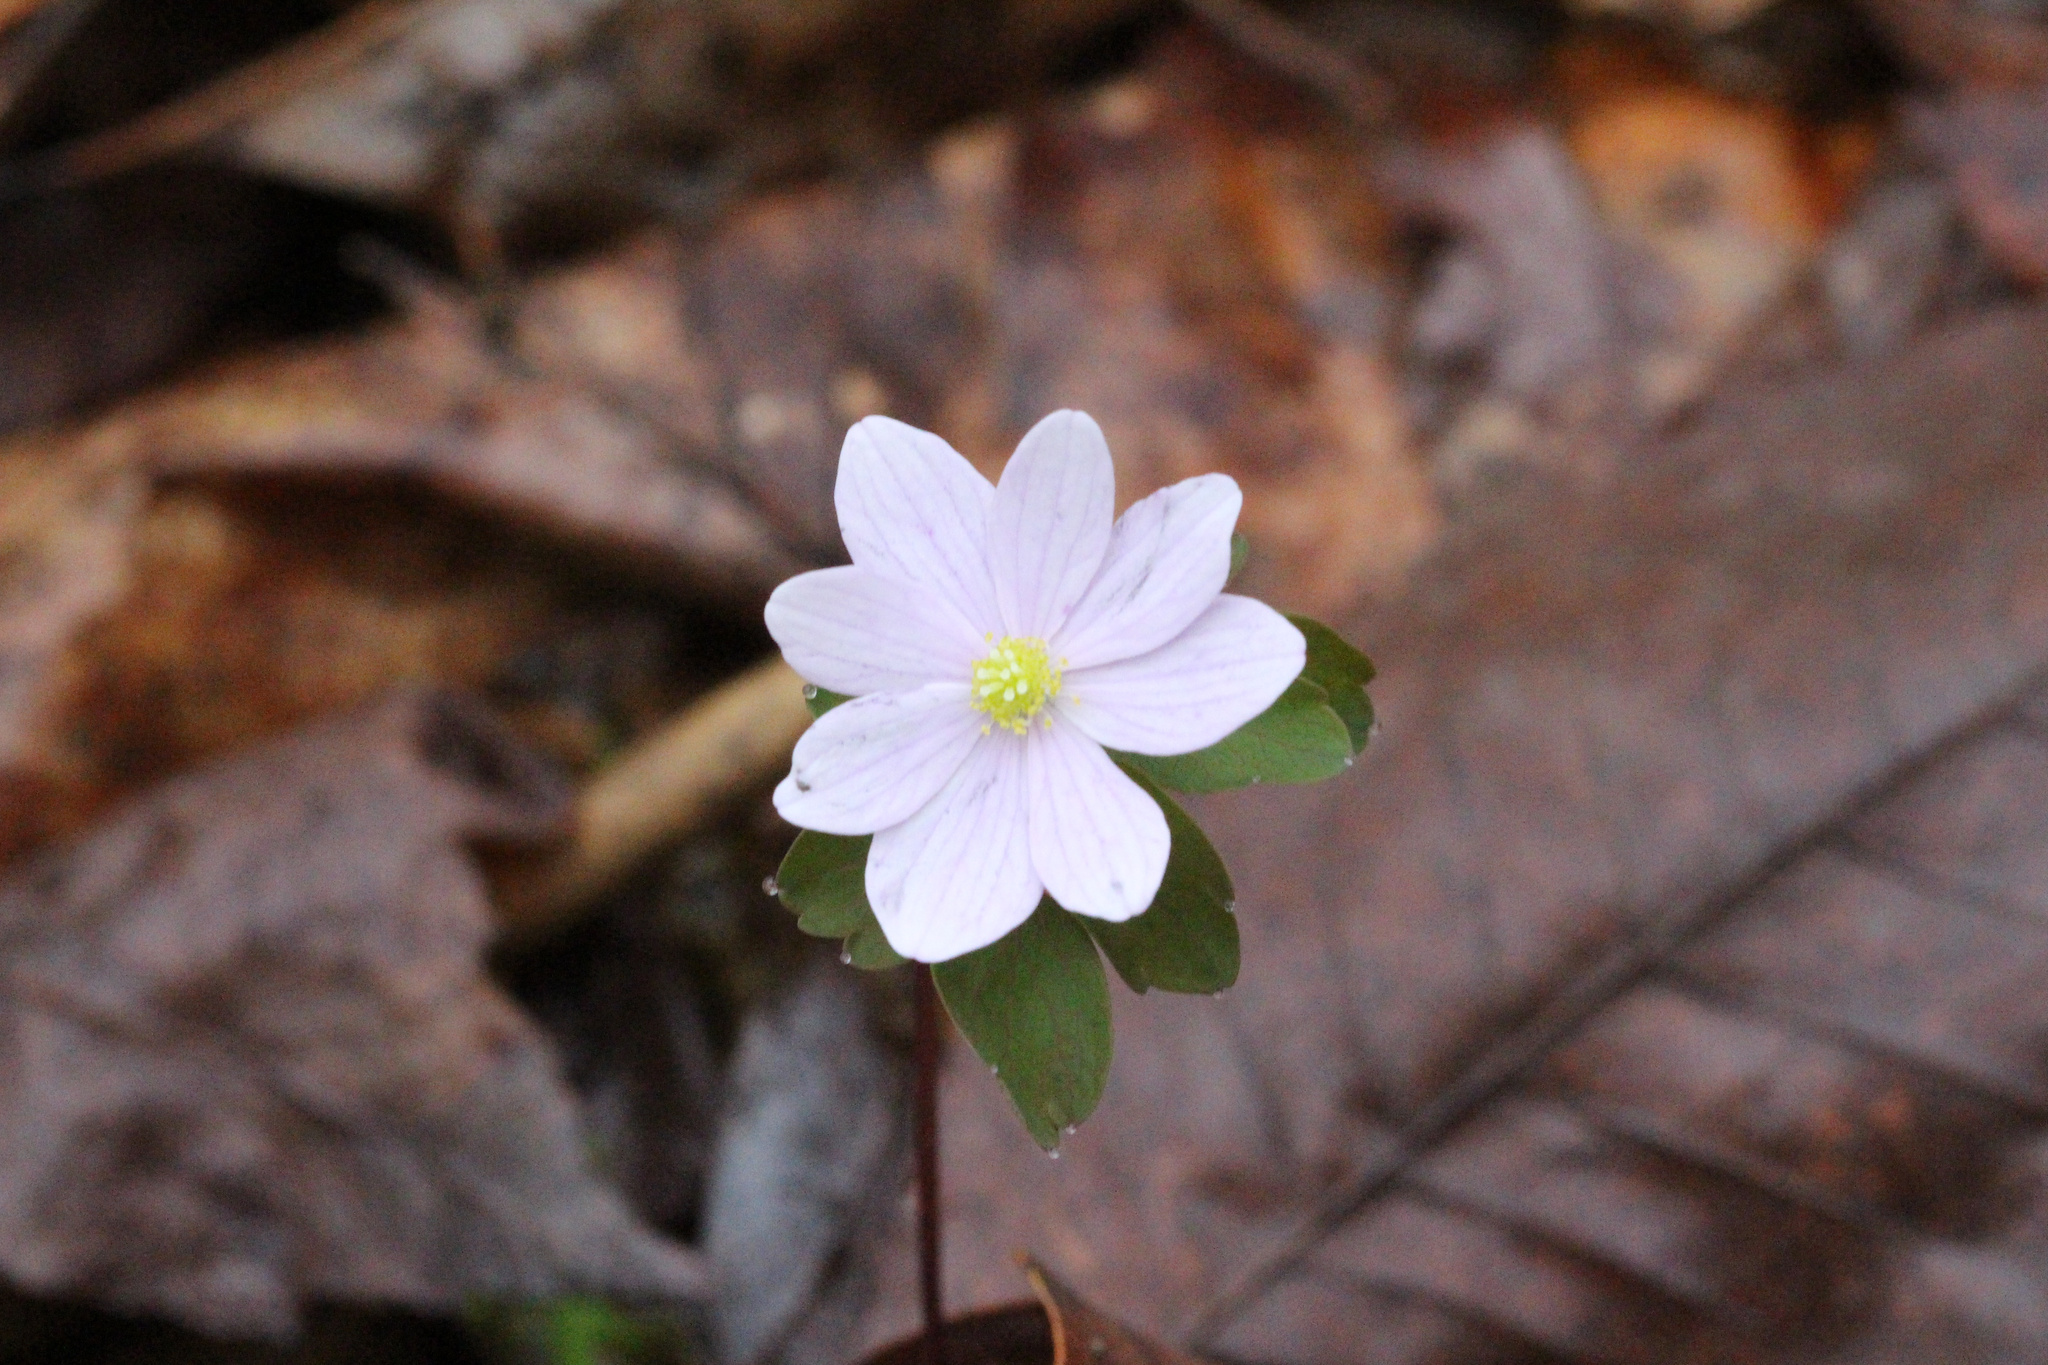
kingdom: Plantae
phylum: Tracheophyta
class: Magnoliopsida
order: Ranunculales
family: Ranunculaceae
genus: Thalictrum
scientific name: Thalictrum thalictroides
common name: Rue-anemone
